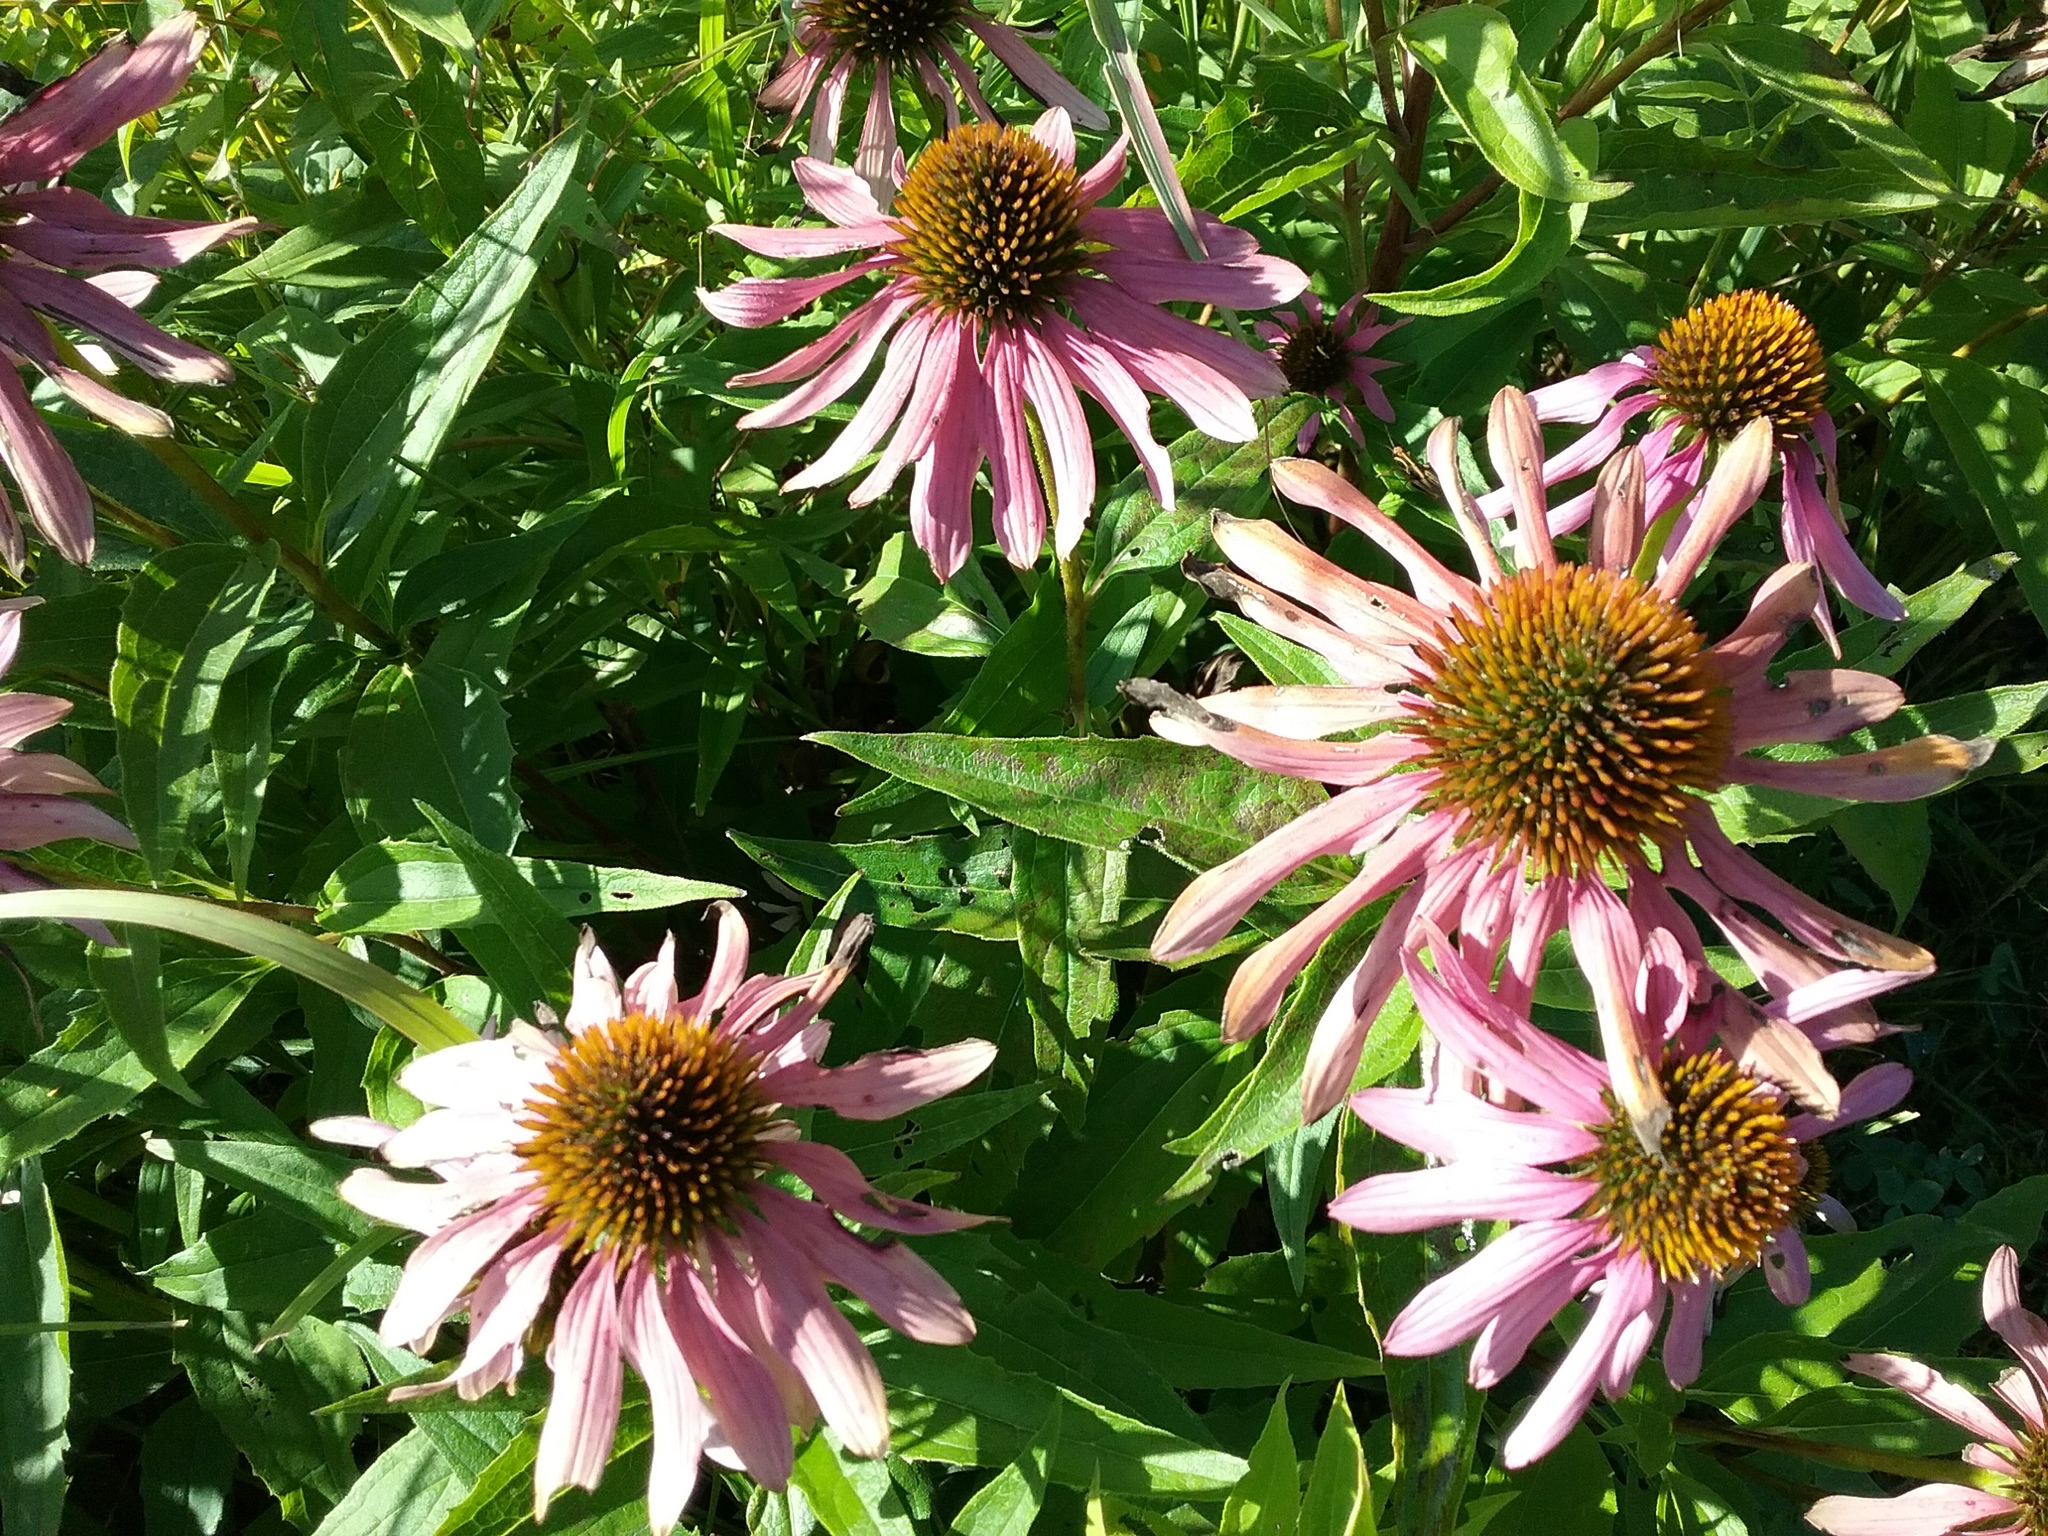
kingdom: Plantae
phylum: Tracheophyta
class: Magnoliopsida
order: Asterales
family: Asteraceae
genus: Echinacea
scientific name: Echinacea purpurea
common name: Broad-leaved purple coneflower
